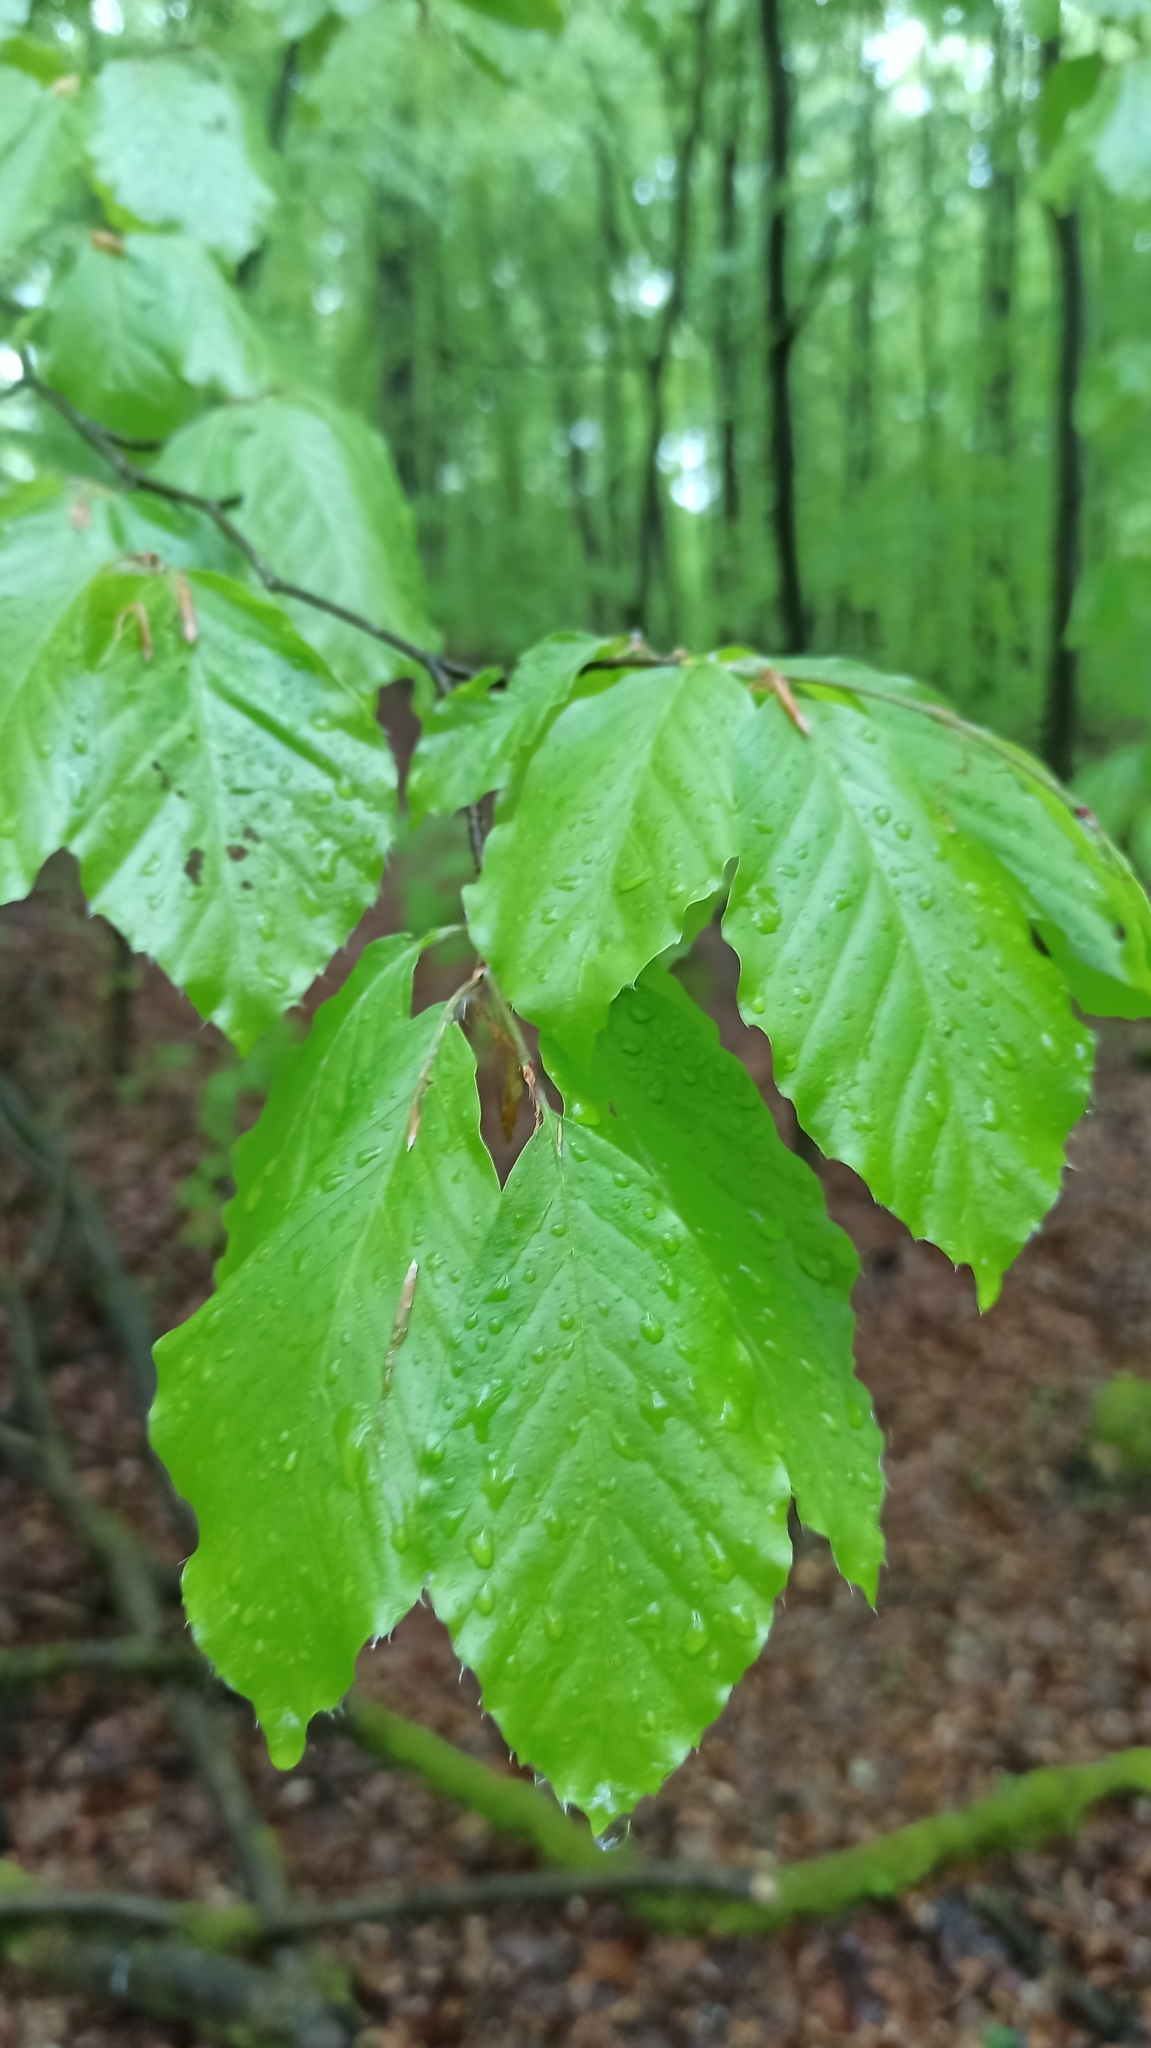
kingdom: Plantae
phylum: Tracheophyta
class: Magnoliopsida
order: Fagales
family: Fagaceae
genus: Fagus
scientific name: Fagus sylvatica
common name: Beech
